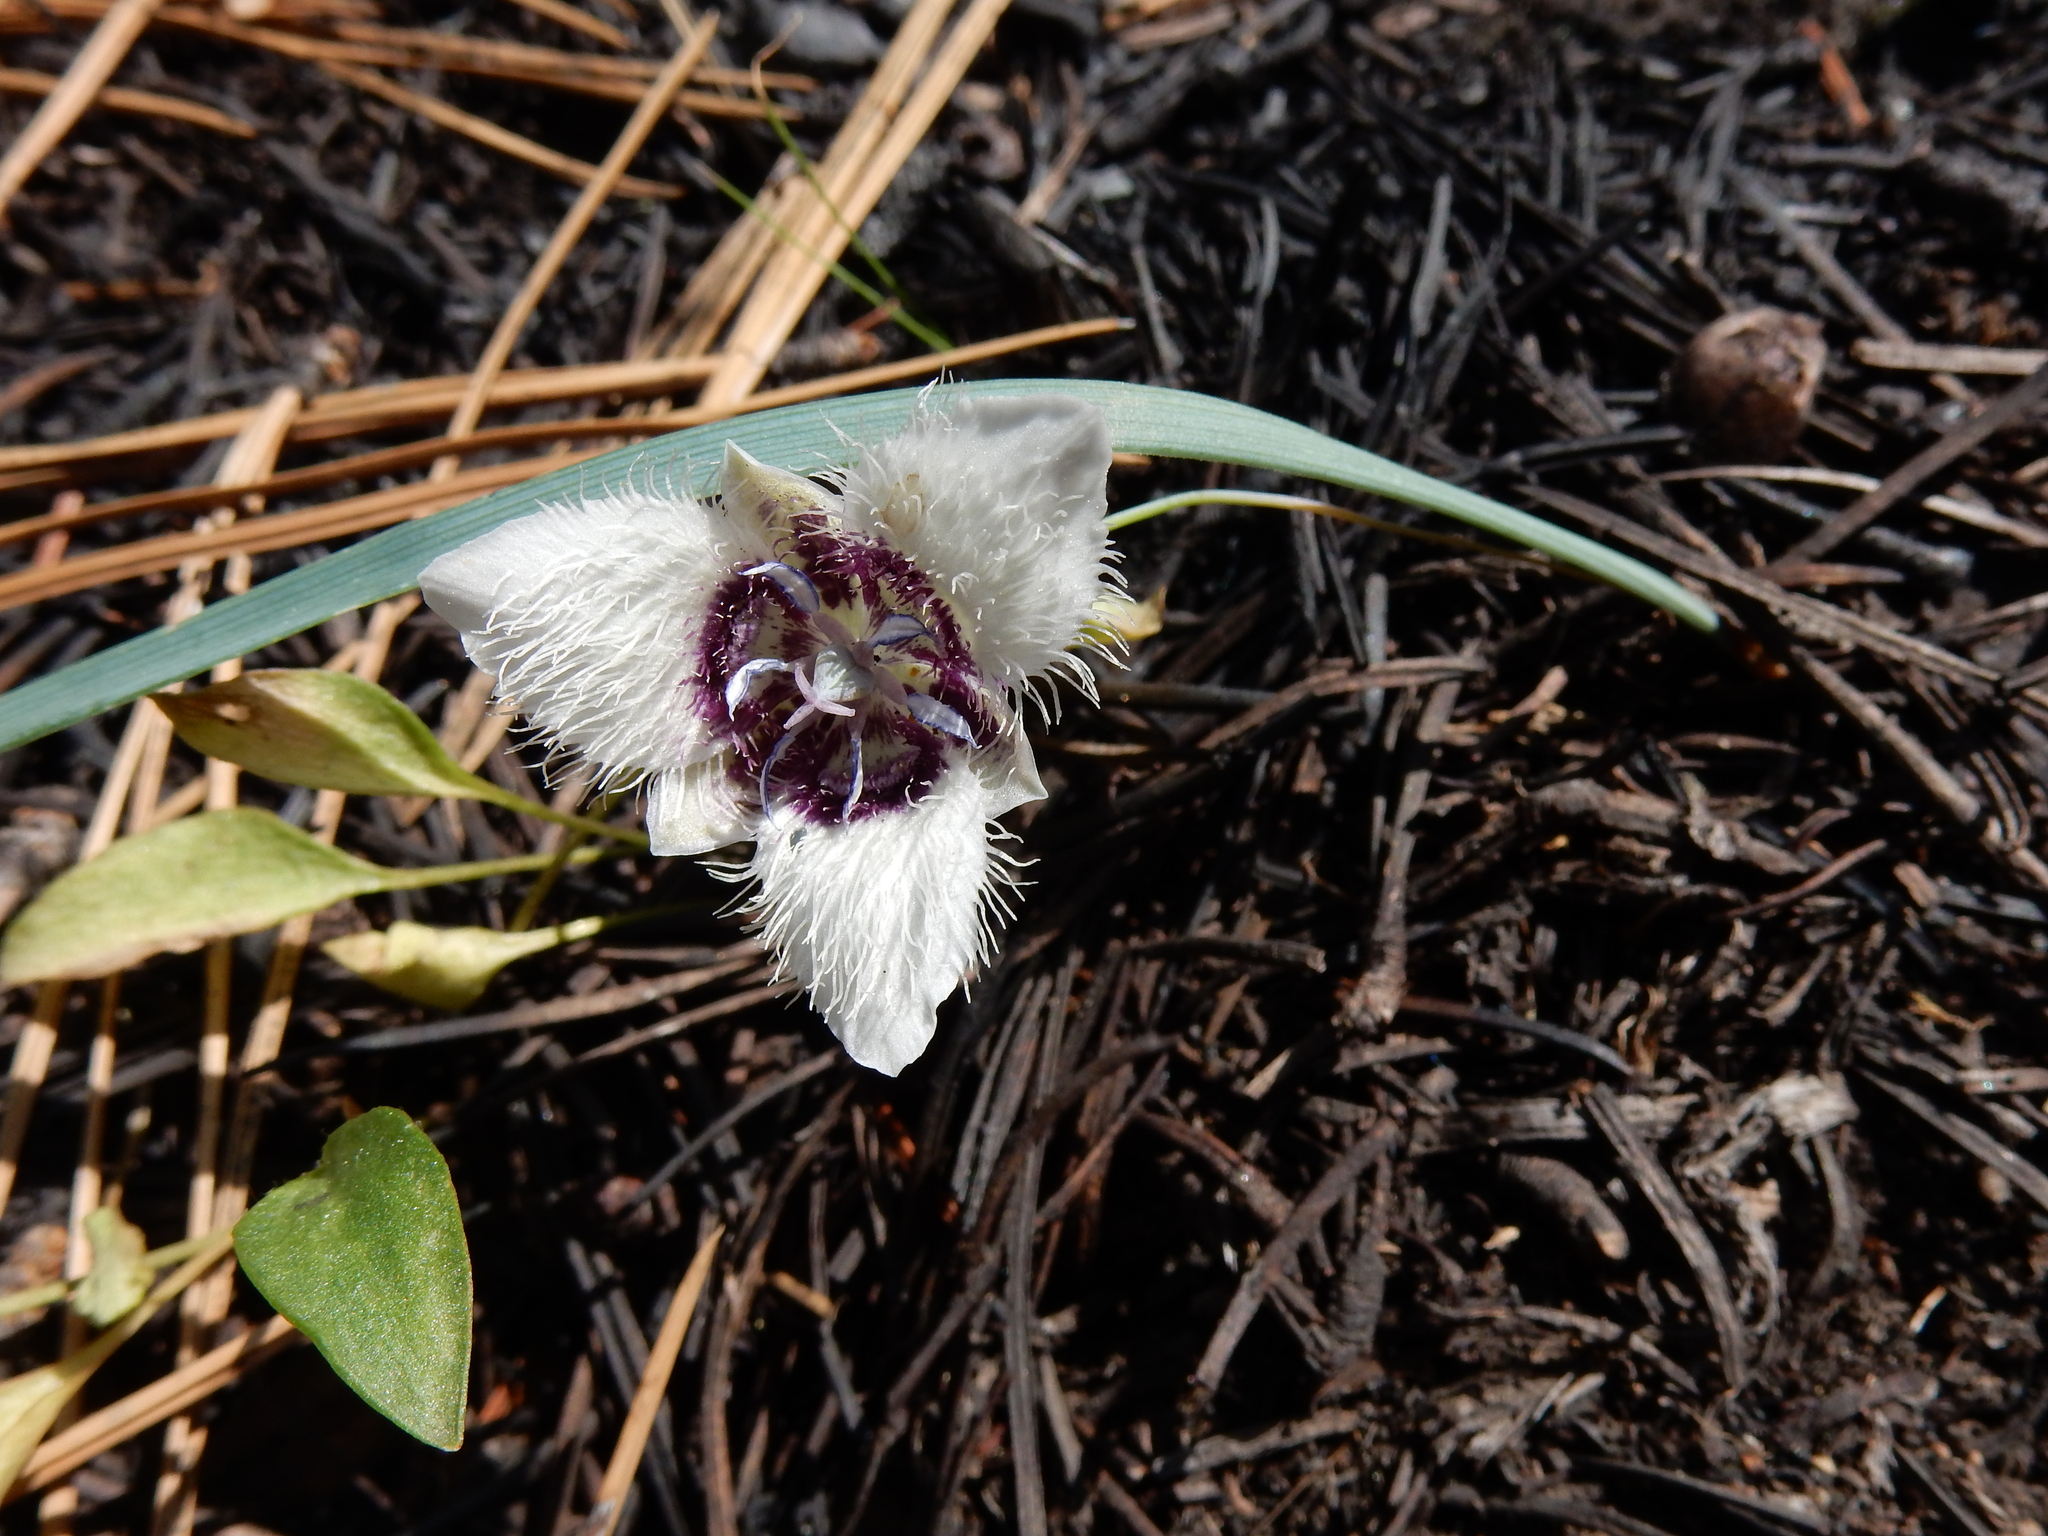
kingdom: Plantae
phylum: Tracheophyta
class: Liliopsida
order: Liliales
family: Liliaceae
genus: Calochortus
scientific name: Calochortus elegans
